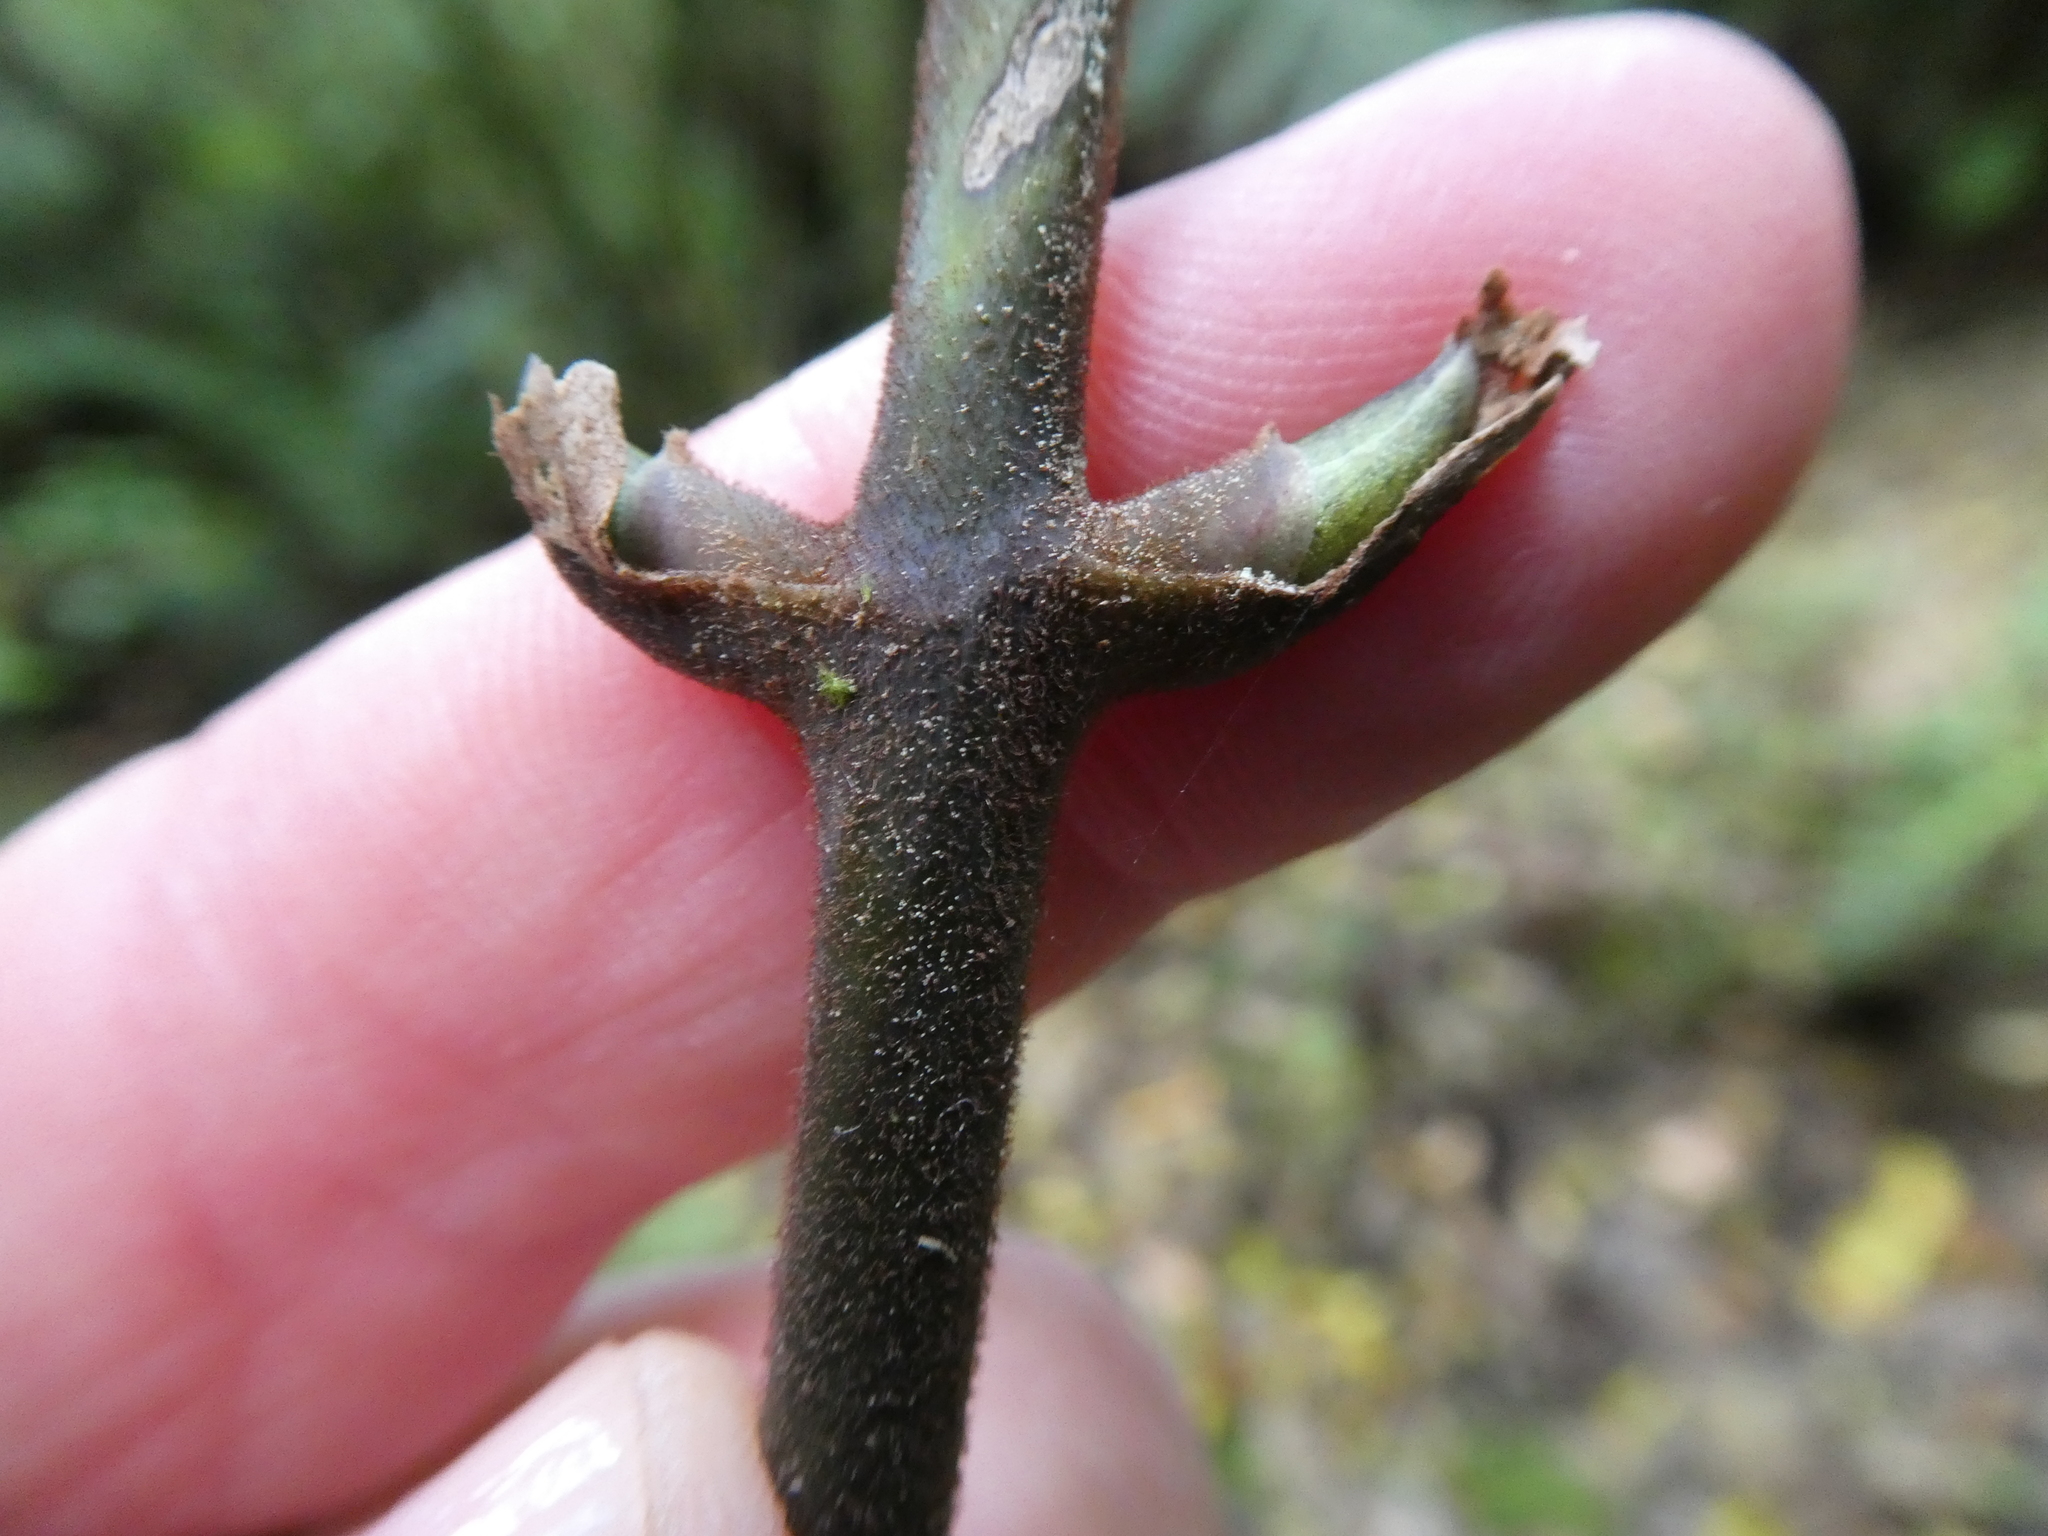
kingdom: Plantae
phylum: Tracheophyta
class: Liliopsida
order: Liliales
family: Ripogonaceae
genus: Ripogonum
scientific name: Ripogonum scandens
